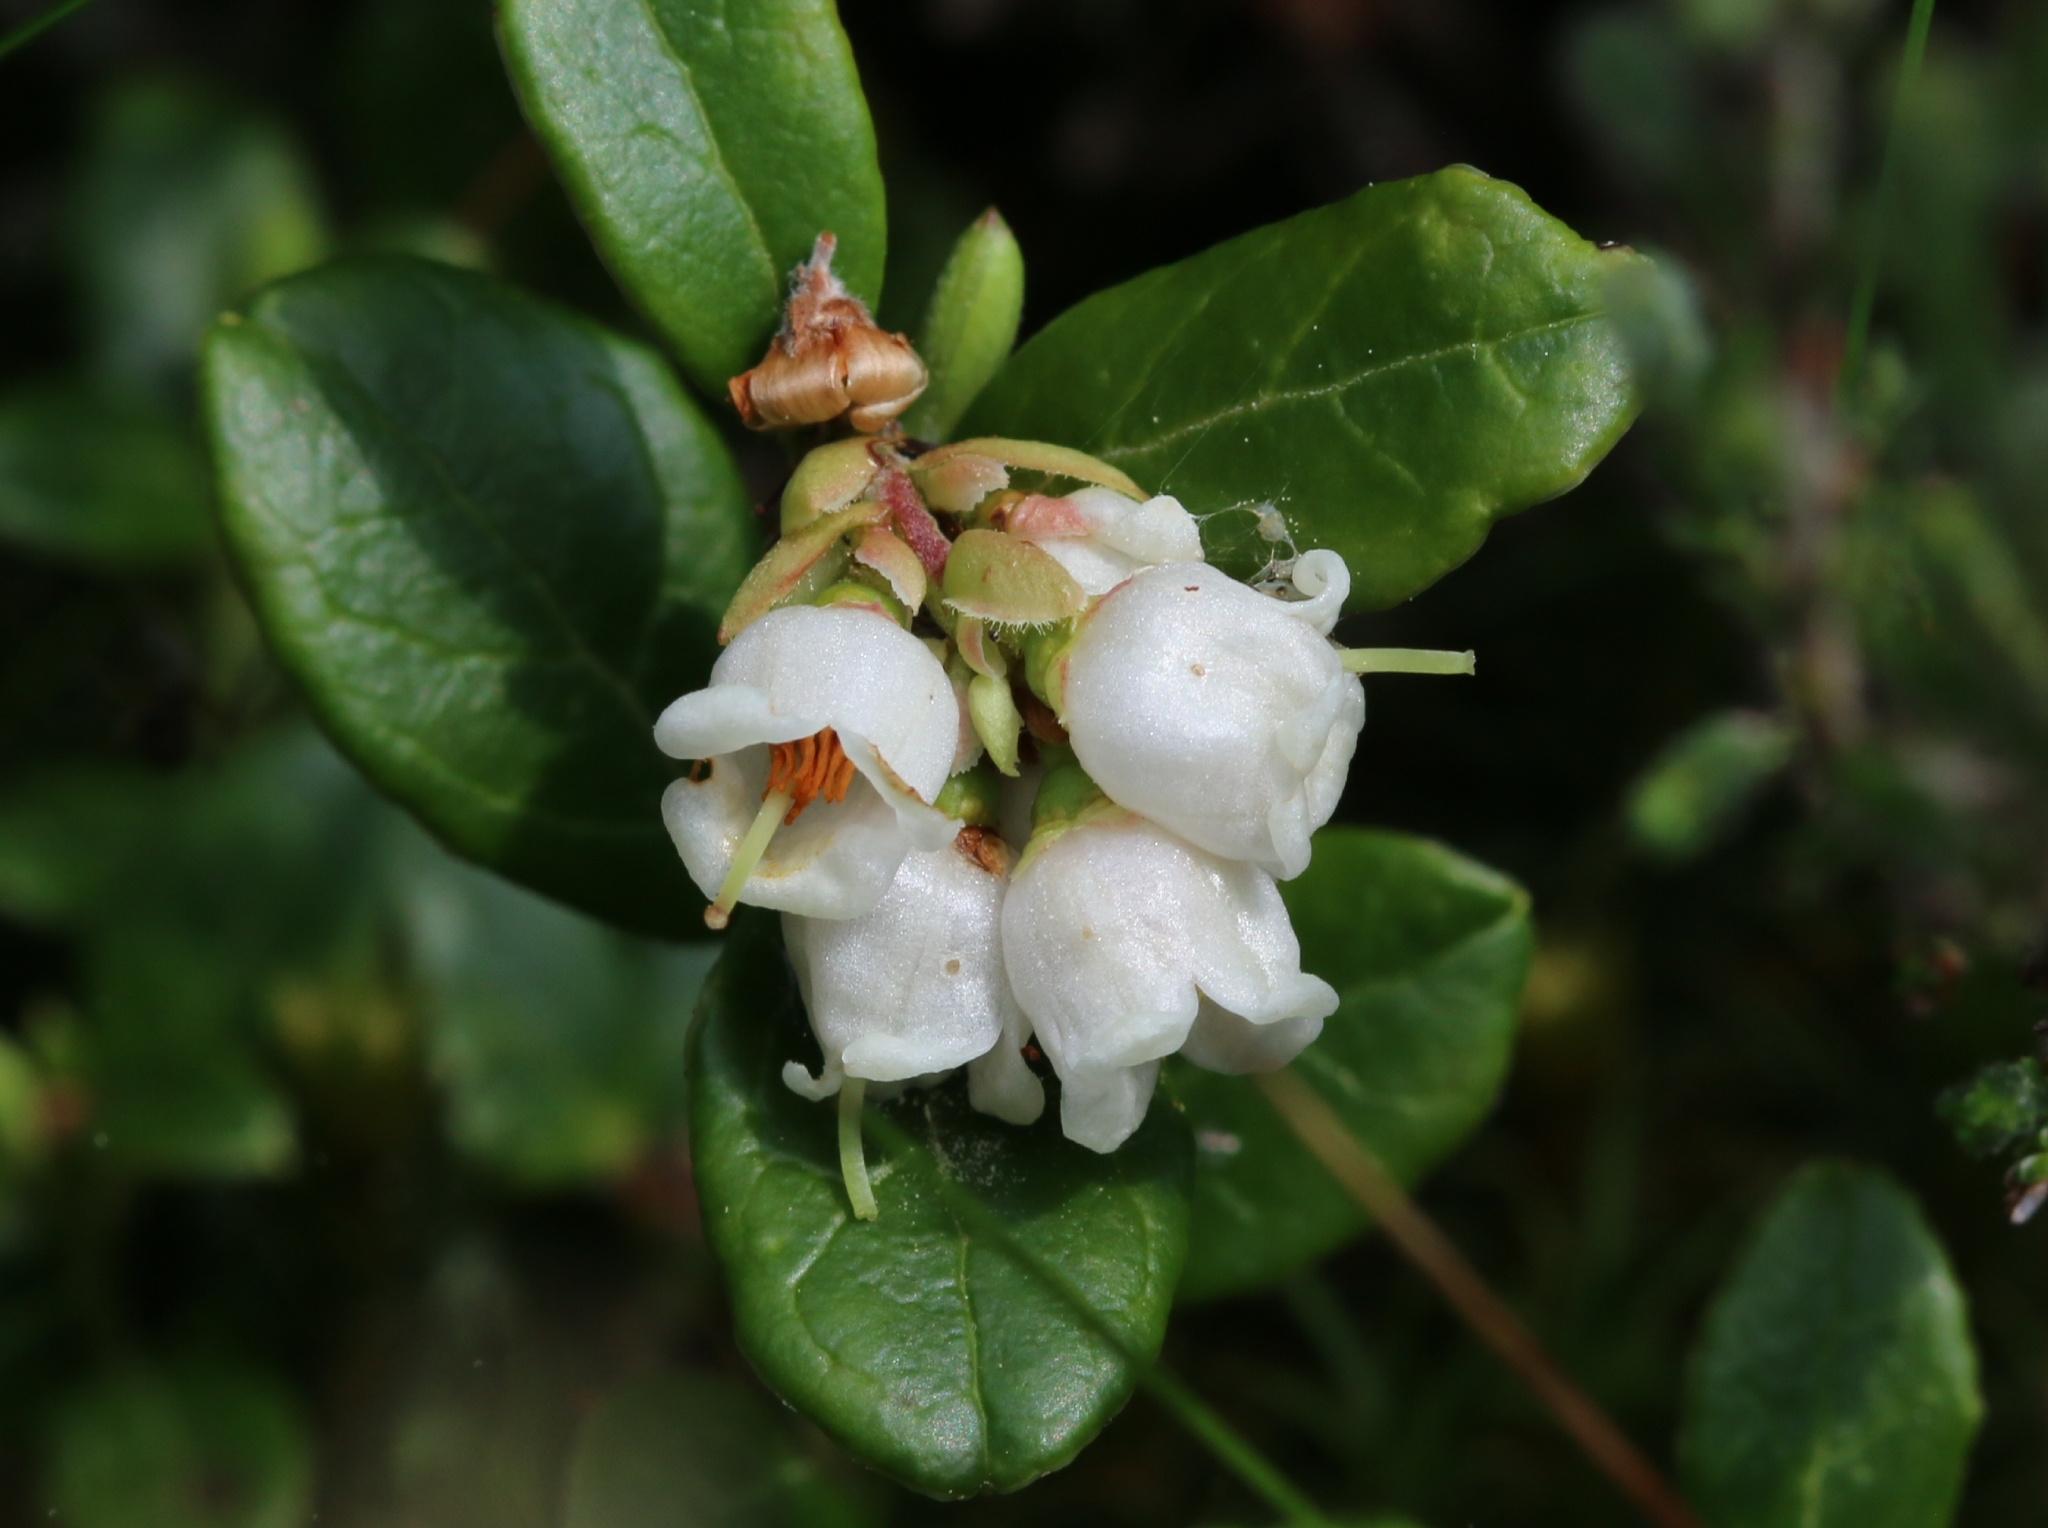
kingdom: Plantae
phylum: Tracheophyta
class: Magnoliopsida
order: Ericales
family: Ericaceae
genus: Vaccinium
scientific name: Vaccinium vitis-idaea
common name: Cowberry
